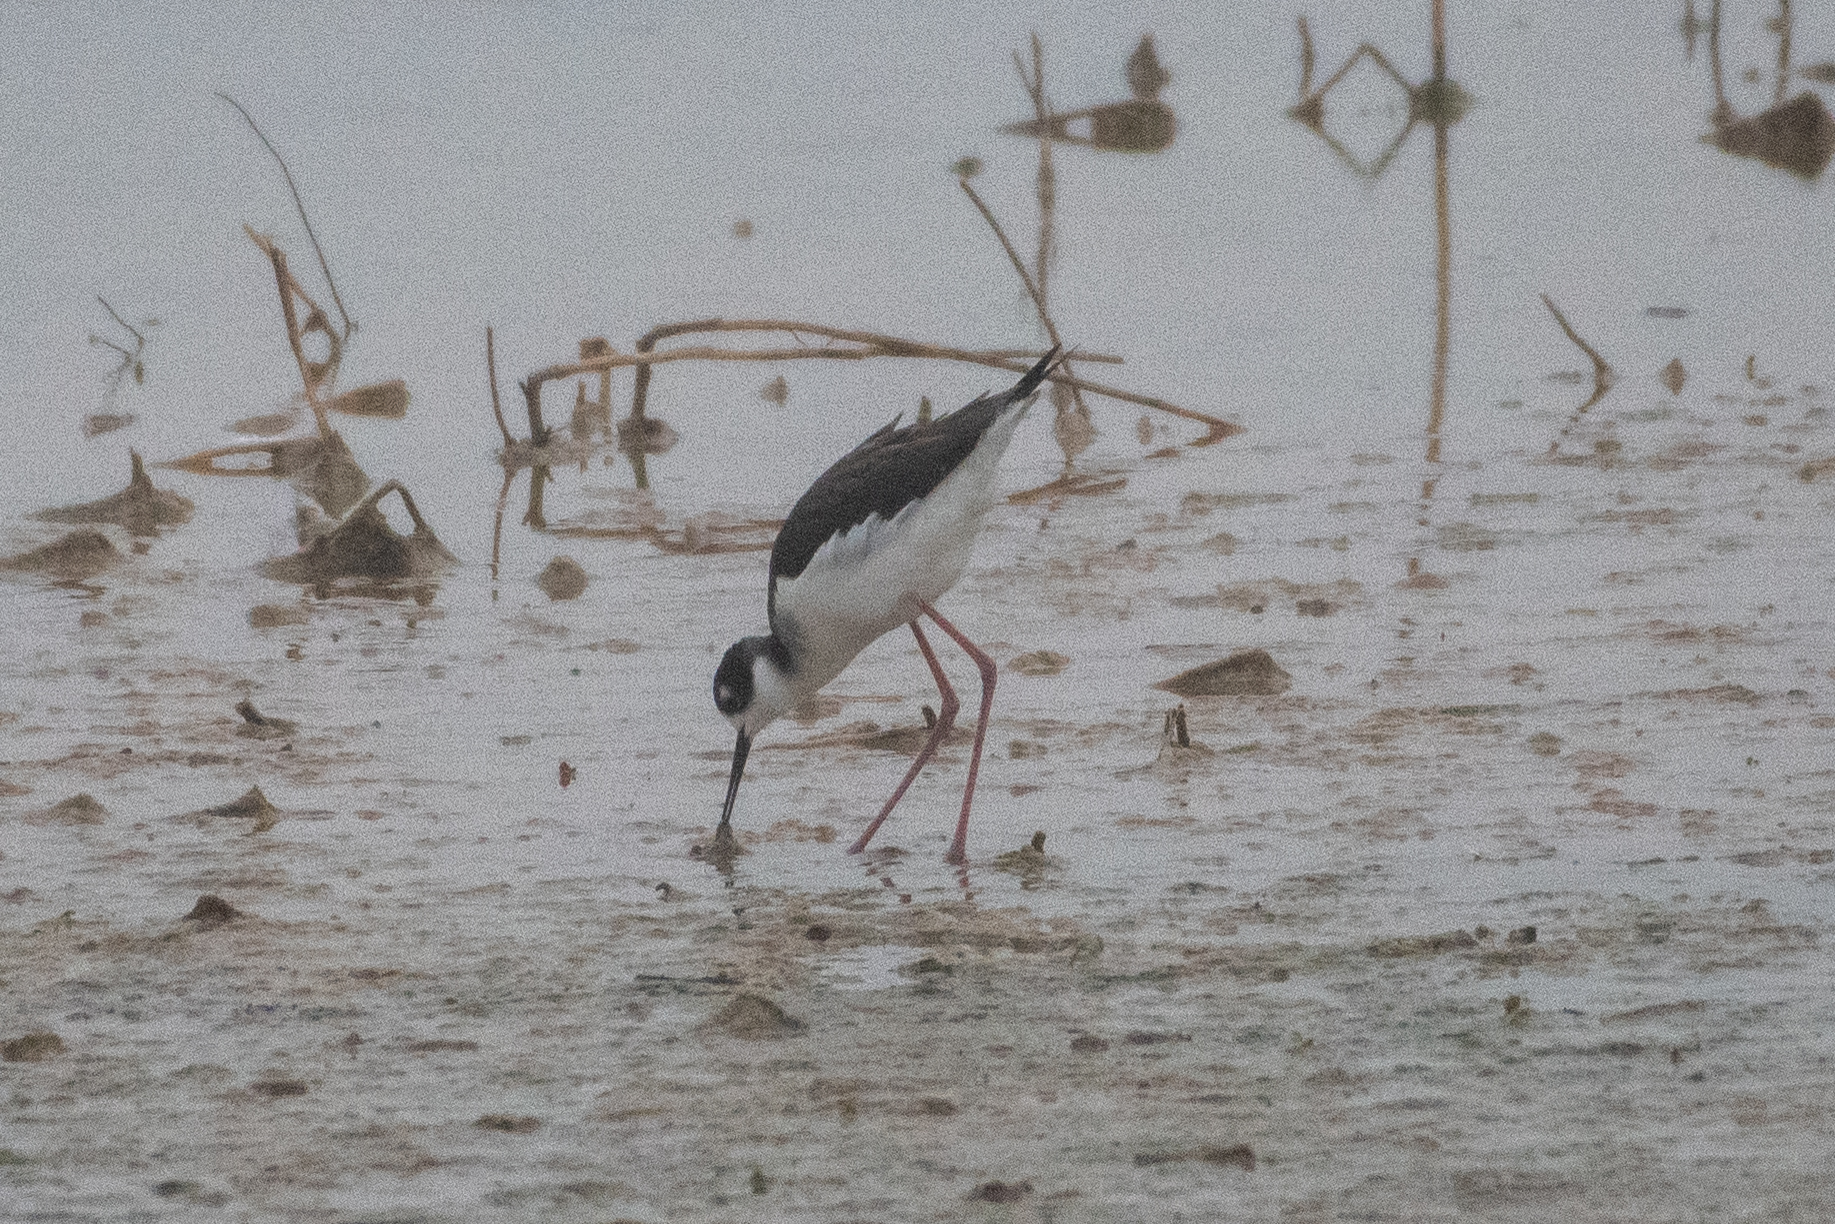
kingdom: Animalia
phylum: Chordata
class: Aves
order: Charadriiformes
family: Recurvirostridae
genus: Himantopus
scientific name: Himantopus mexicanus
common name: Black-necked stilt
